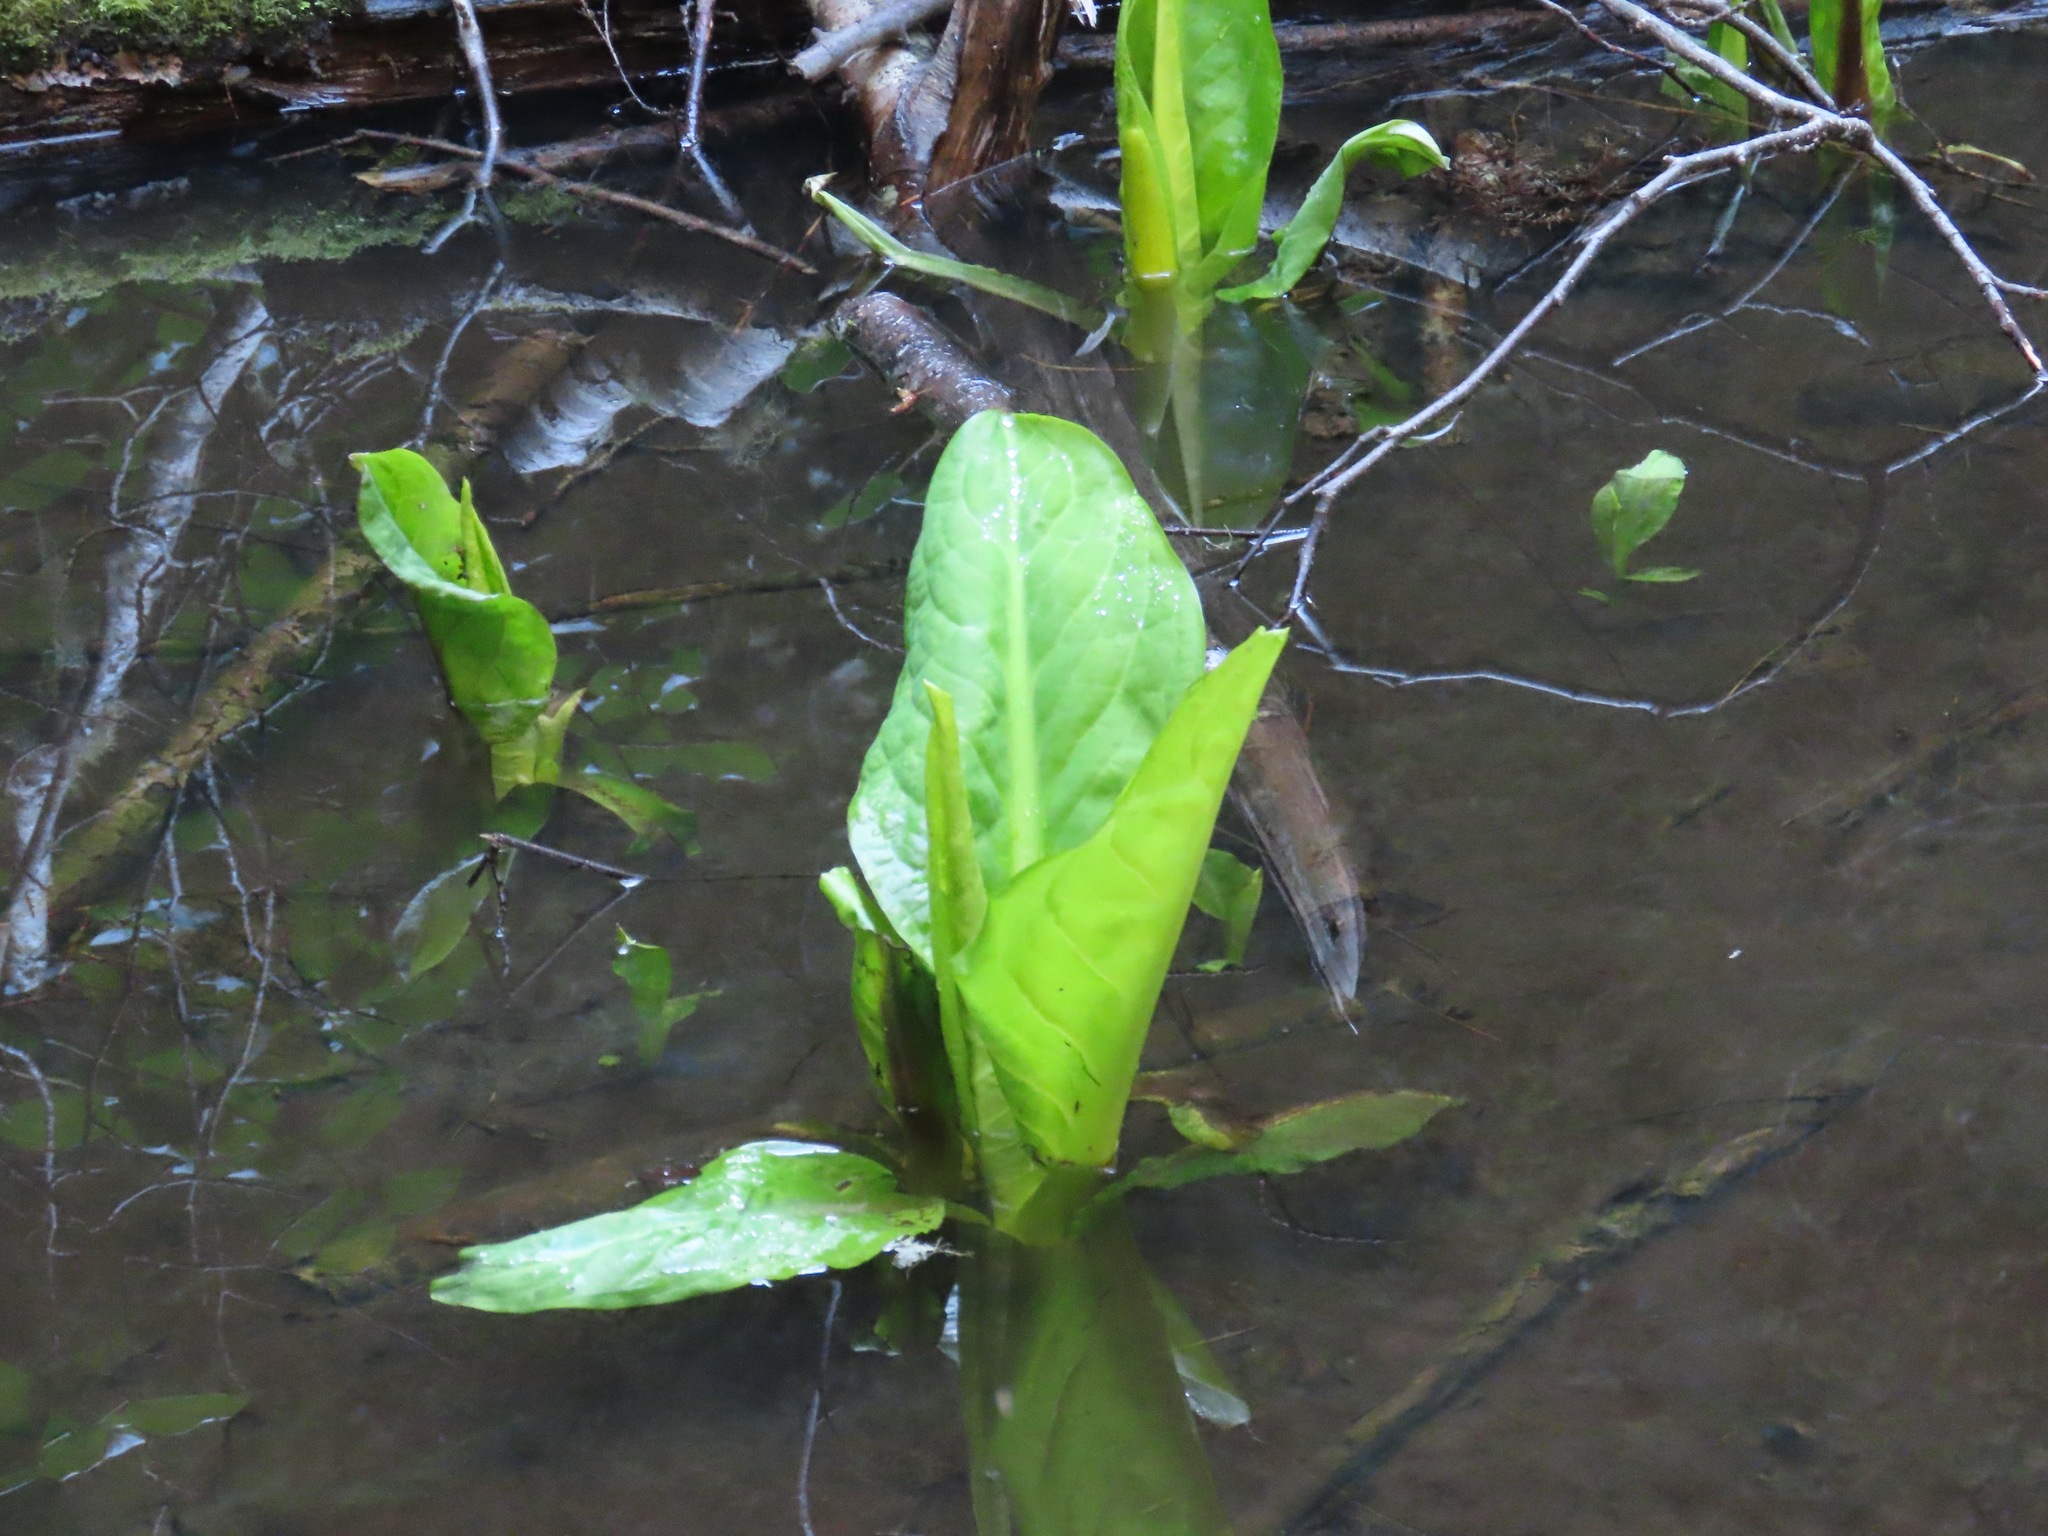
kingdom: Plantae
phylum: Tracheophyta
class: Liliopsida
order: Alismatales
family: Araceae
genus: Lysichiton
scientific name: Lysichiton americanus
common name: American skunk cabbage
